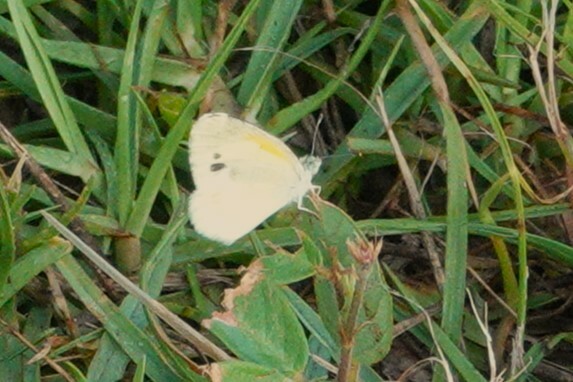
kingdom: Animalia
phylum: Arthropoda
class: Insecta
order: Lepidoptera
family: Pieridae
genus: Nathalis
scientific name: Nathalis iole
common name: Dainty sulphur
